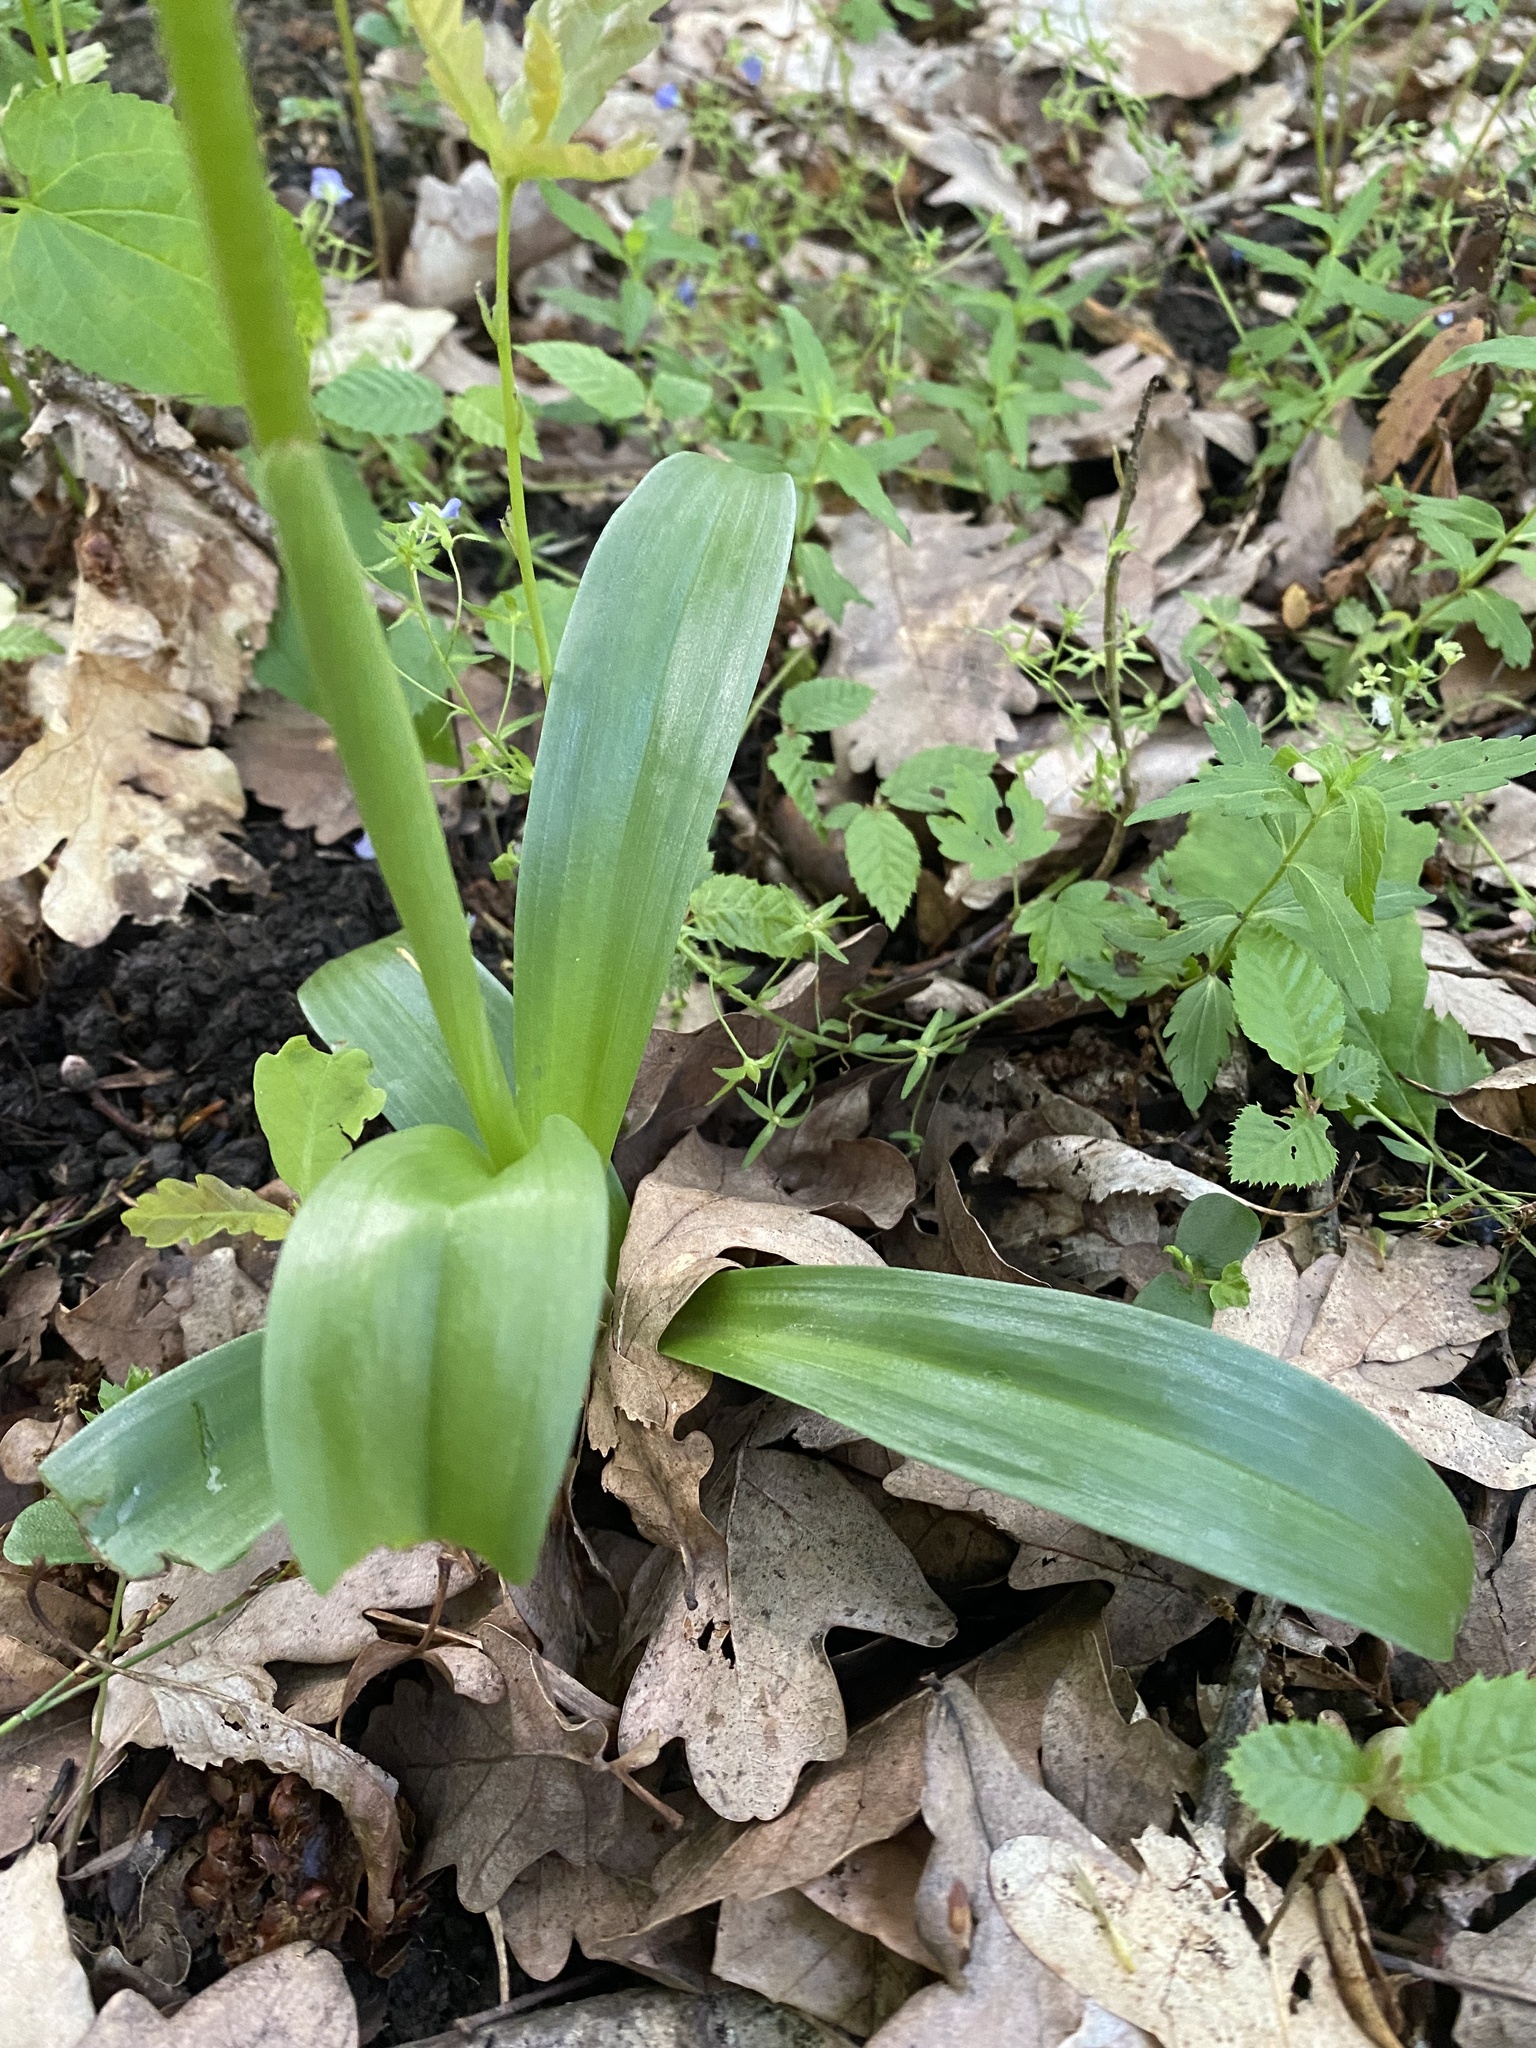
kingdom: Plantae
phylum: Tracheophyta
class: Liliopsida
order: Asparagales
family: Orchidaceae
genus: Orchis
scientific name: Orchis mascula
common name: Early-purple orchid
